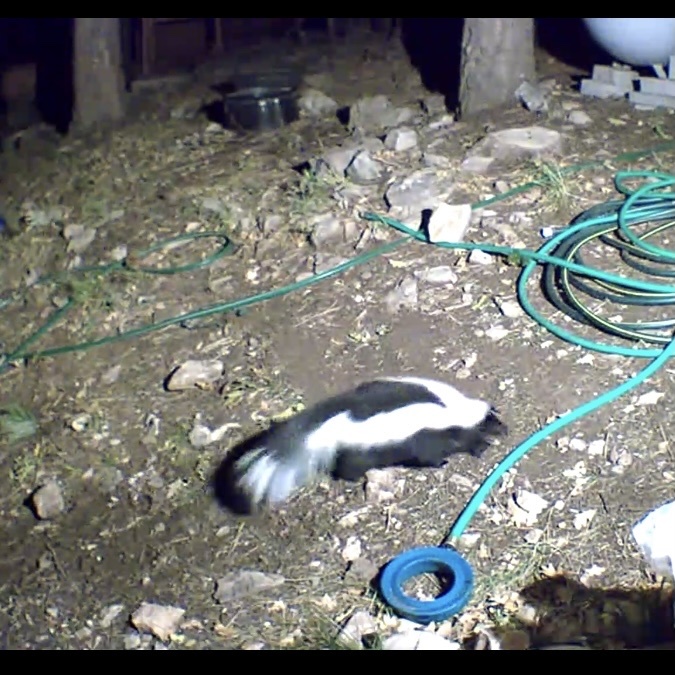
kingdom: Animalia
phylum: Chordata
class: Mammalia
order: Carnivora
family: Mephitidae
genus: Mephitis
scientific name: Mephitis mephitis
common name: Striped skunk
